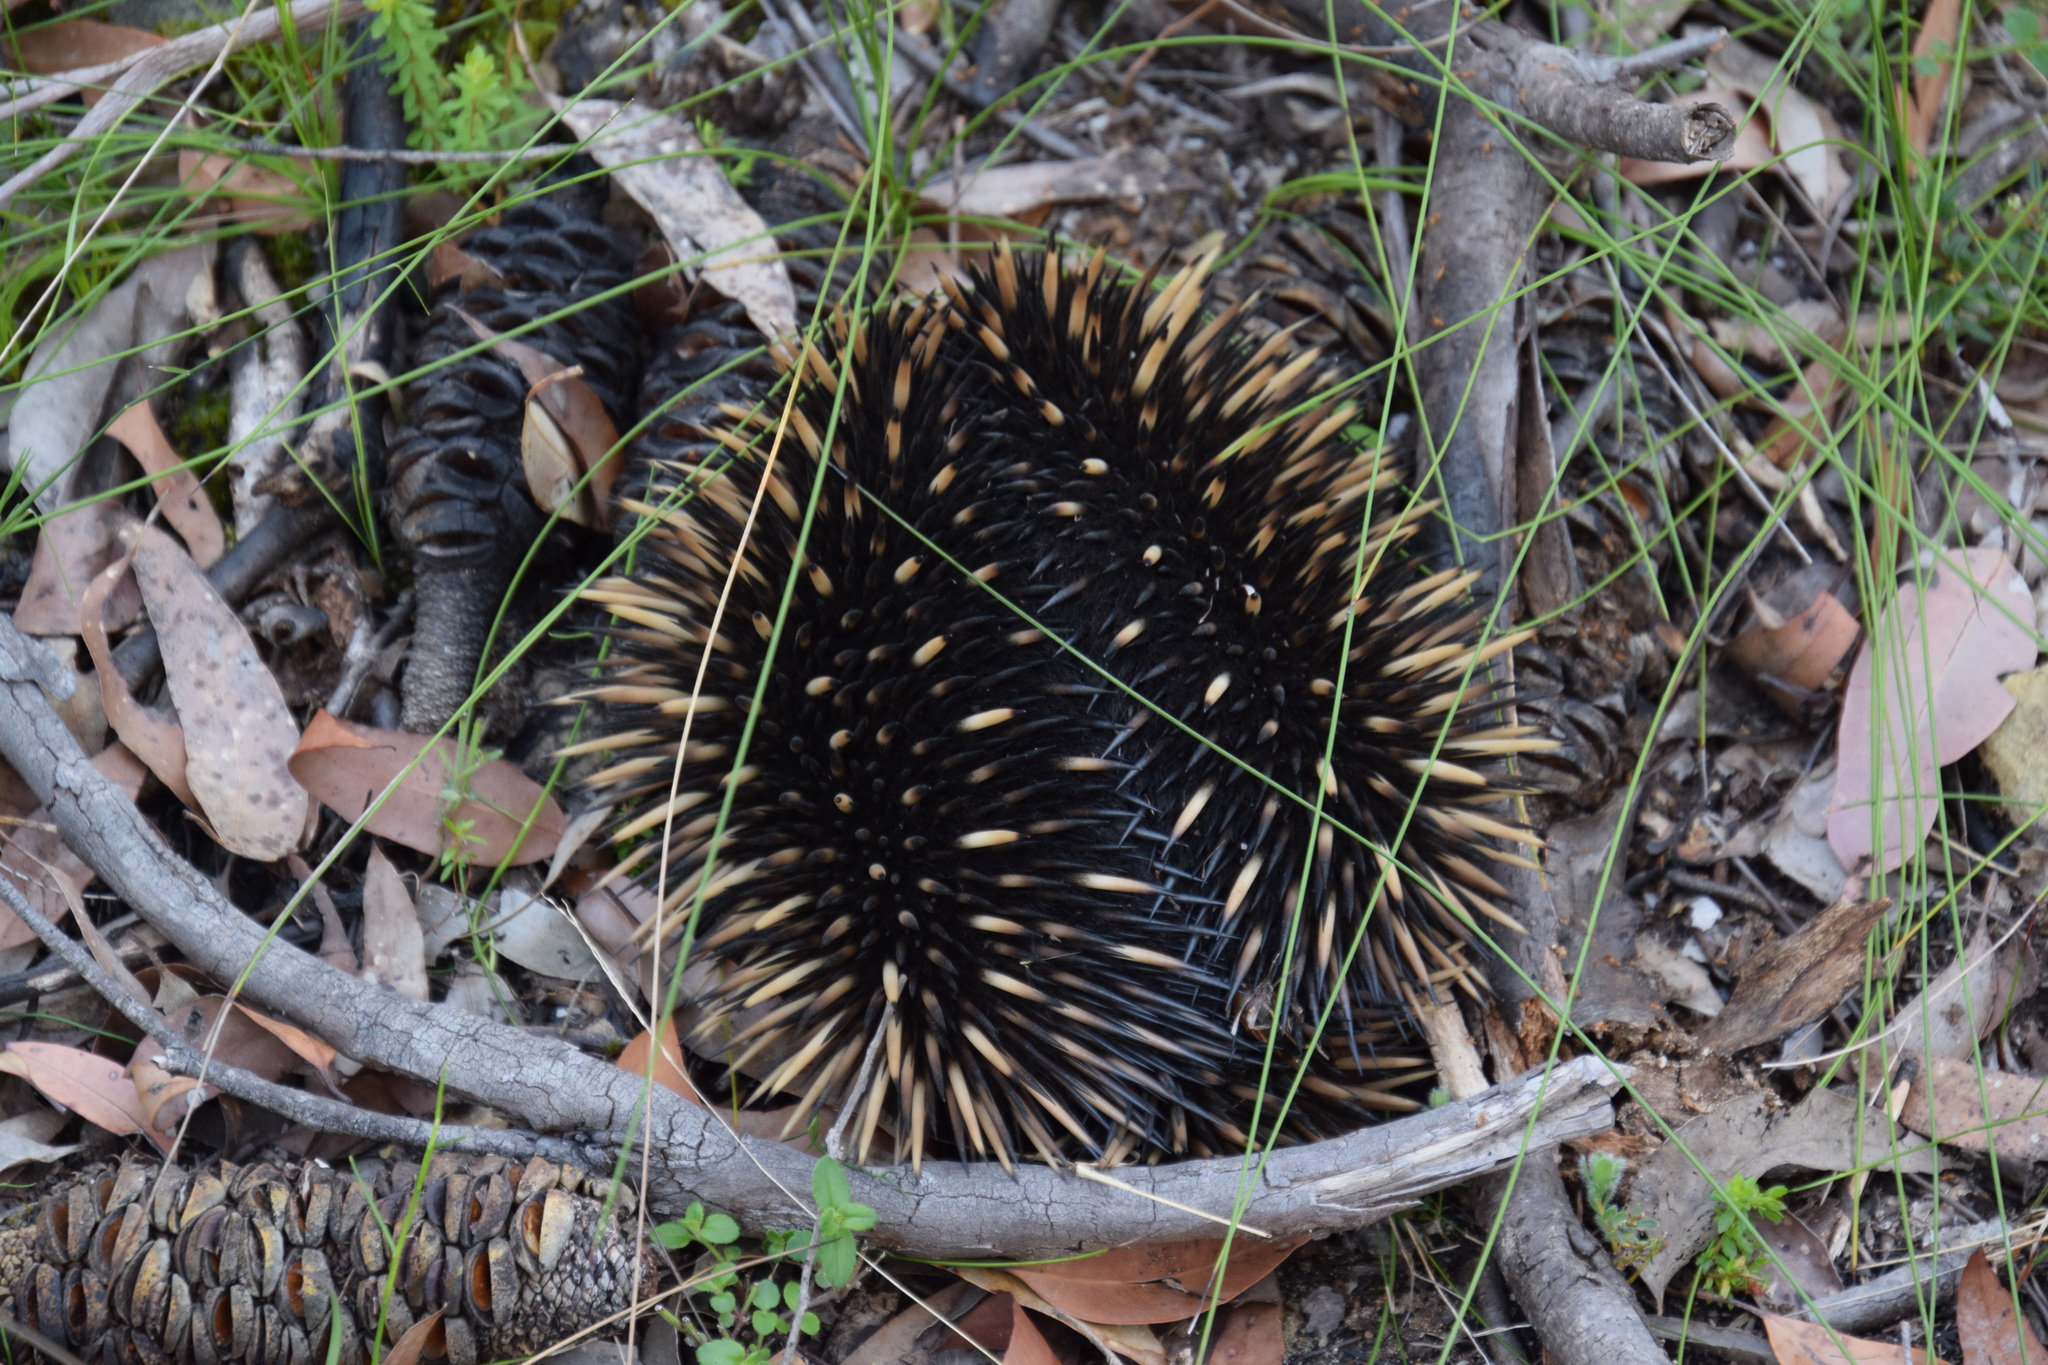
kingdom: Animalia
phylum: Chordata
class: Mammalia
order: Monotremata
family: Tachyglossidae
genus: Tachyglossus
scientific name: Tachyglossus aculeatus
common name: Short-beaked echidna
